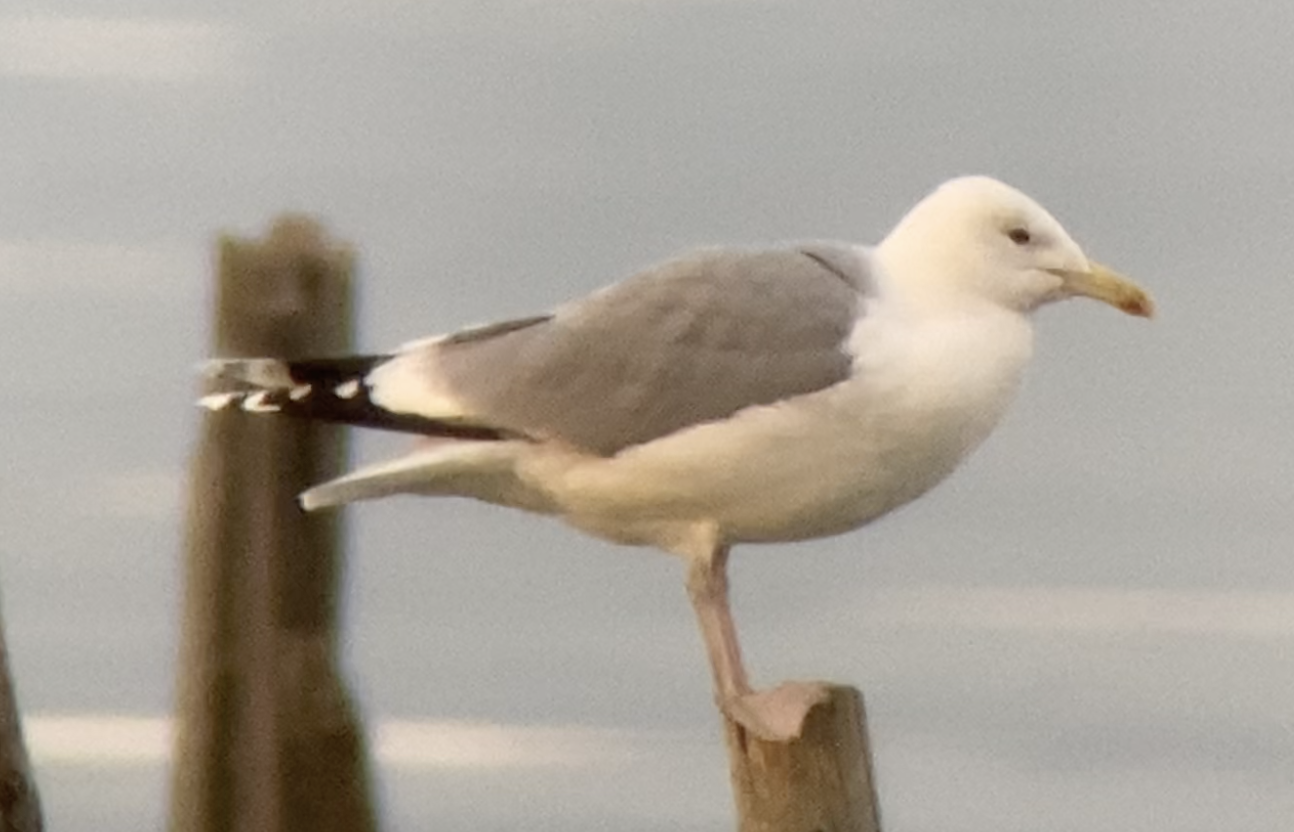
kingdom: Animalia
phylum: Chordata
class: Aves
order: Charadriiformes
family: Laridae
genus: Larus
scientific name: Larus cachinnans
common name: Caspian gull
